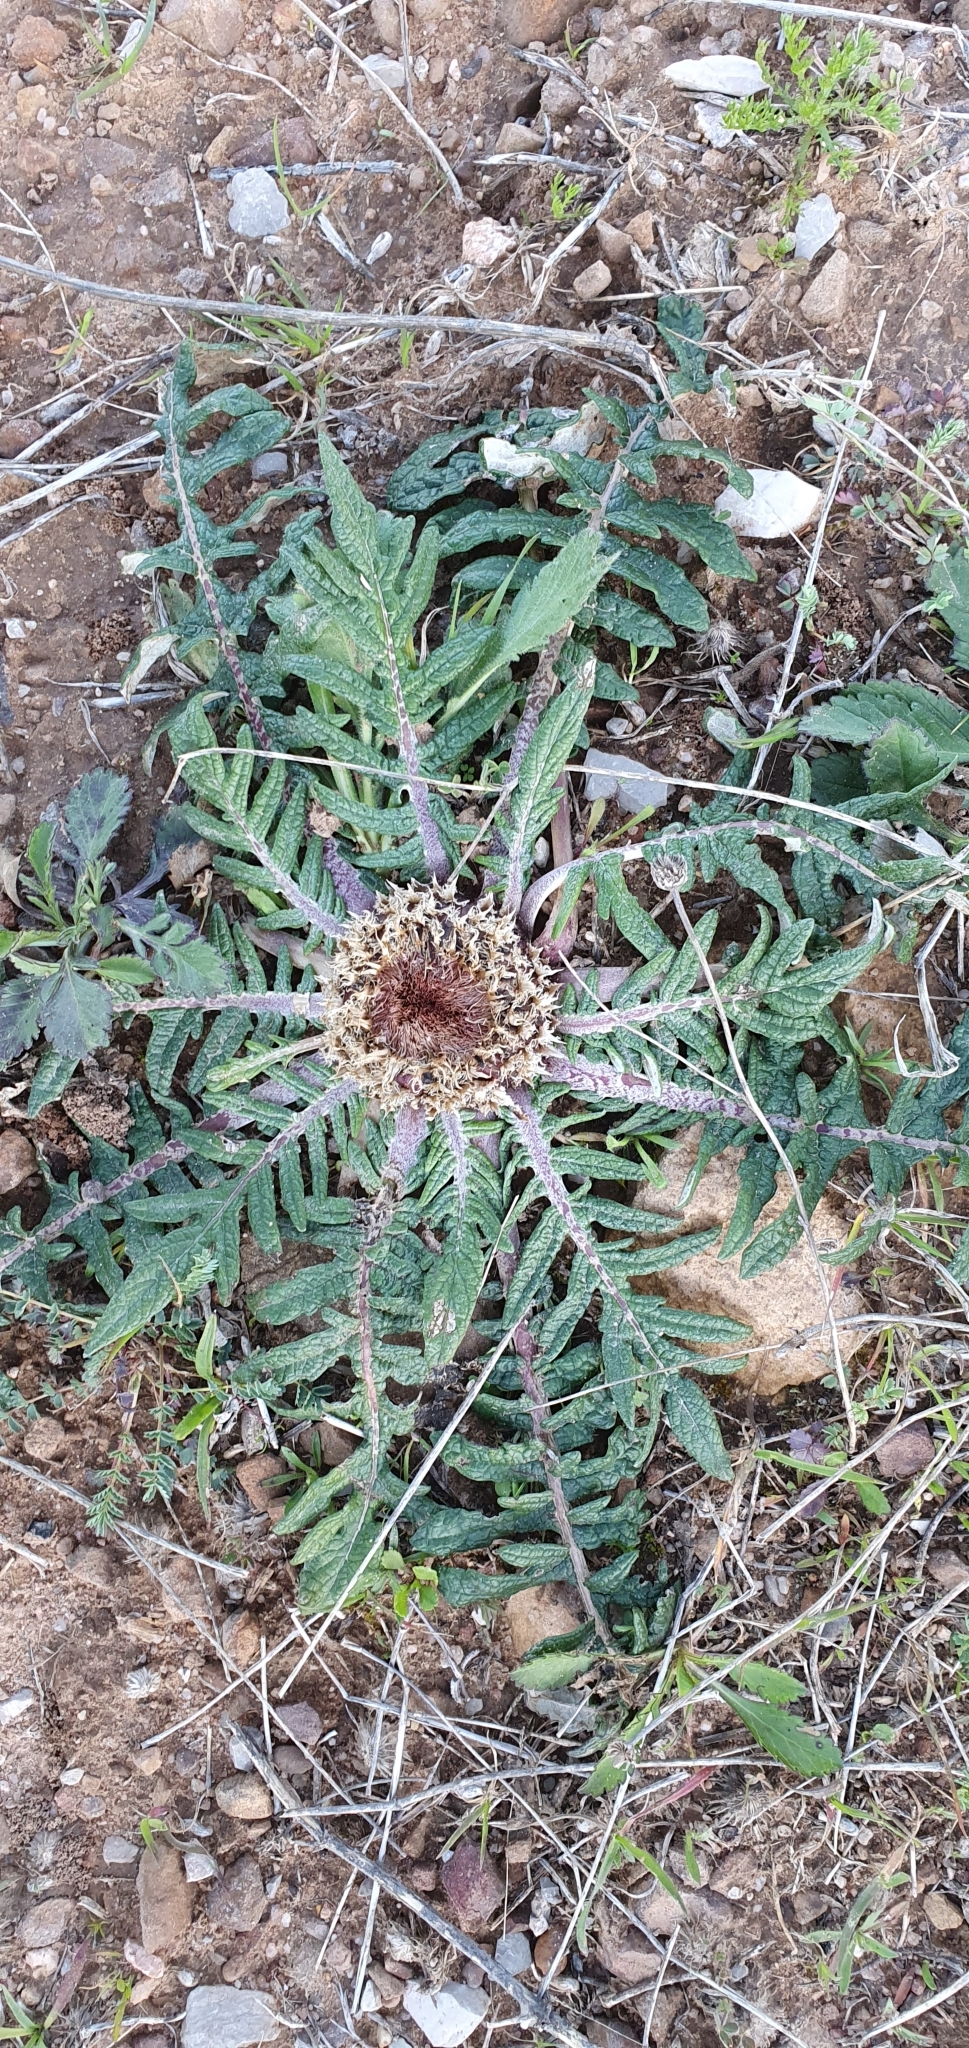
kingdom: Plantae
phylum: Tracheophyta
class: Magnoliopsida
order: Asterales
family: Asteraceae
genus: Leuzea
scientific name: Leuzea acaulis
